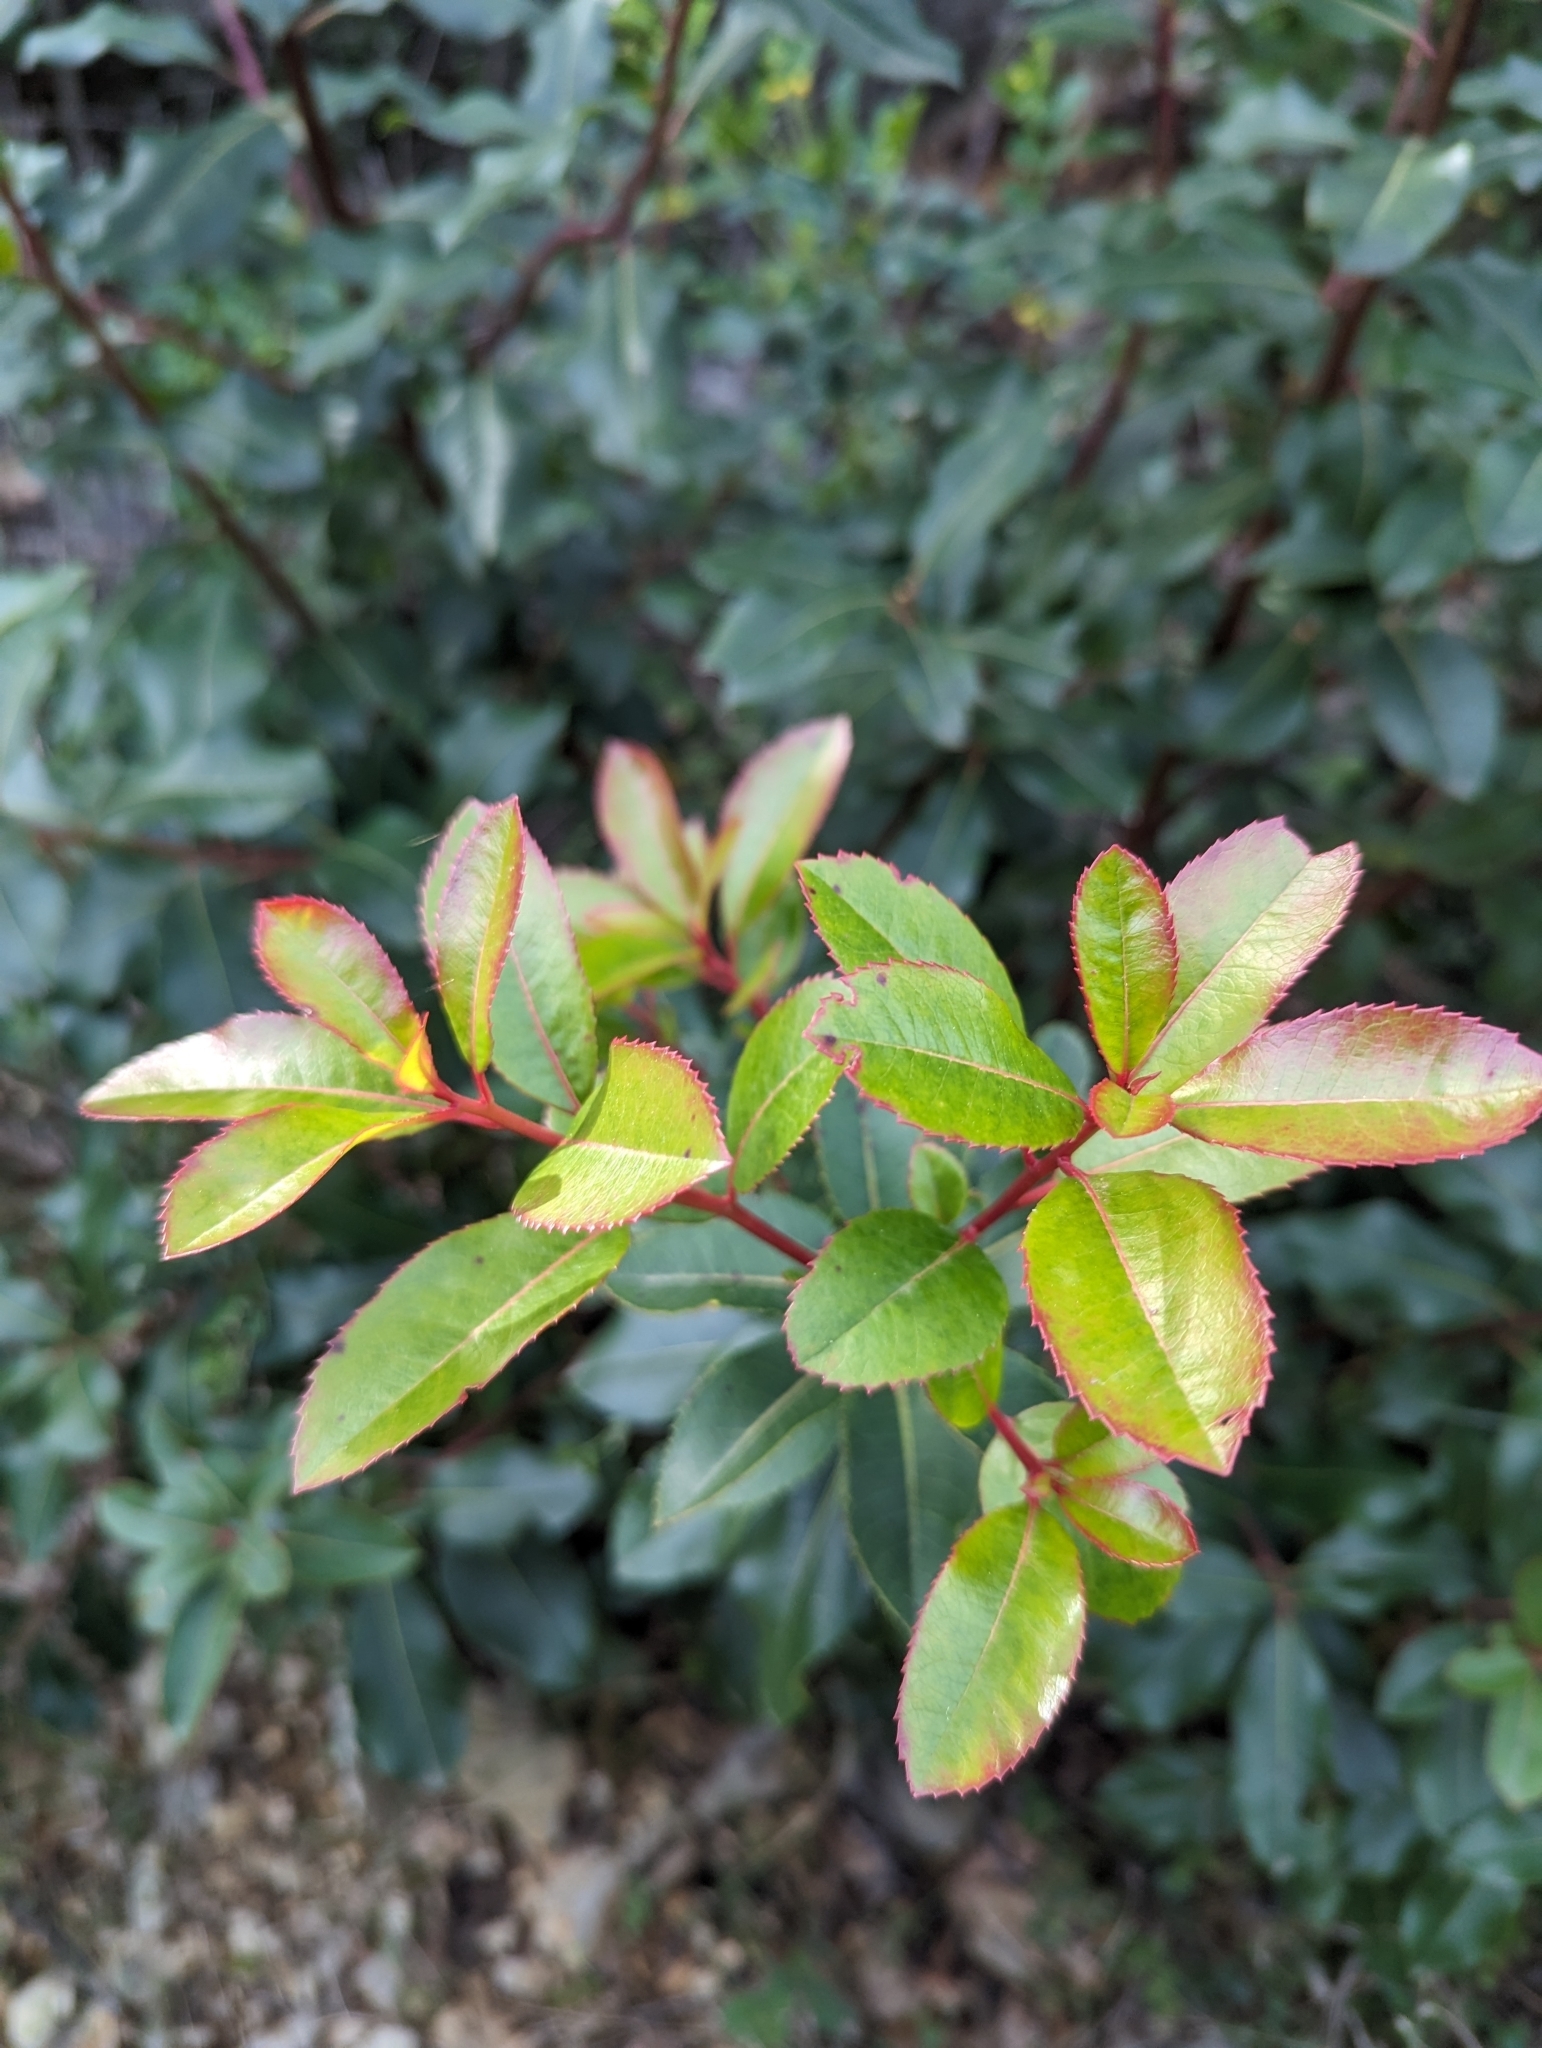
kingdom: Plantae
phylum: Tracheophyta
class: Magnoliopsida
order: Ericales
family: Ericaceae
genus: Arbutus
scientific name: Arbutus unedo
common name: Strawberry-tree
